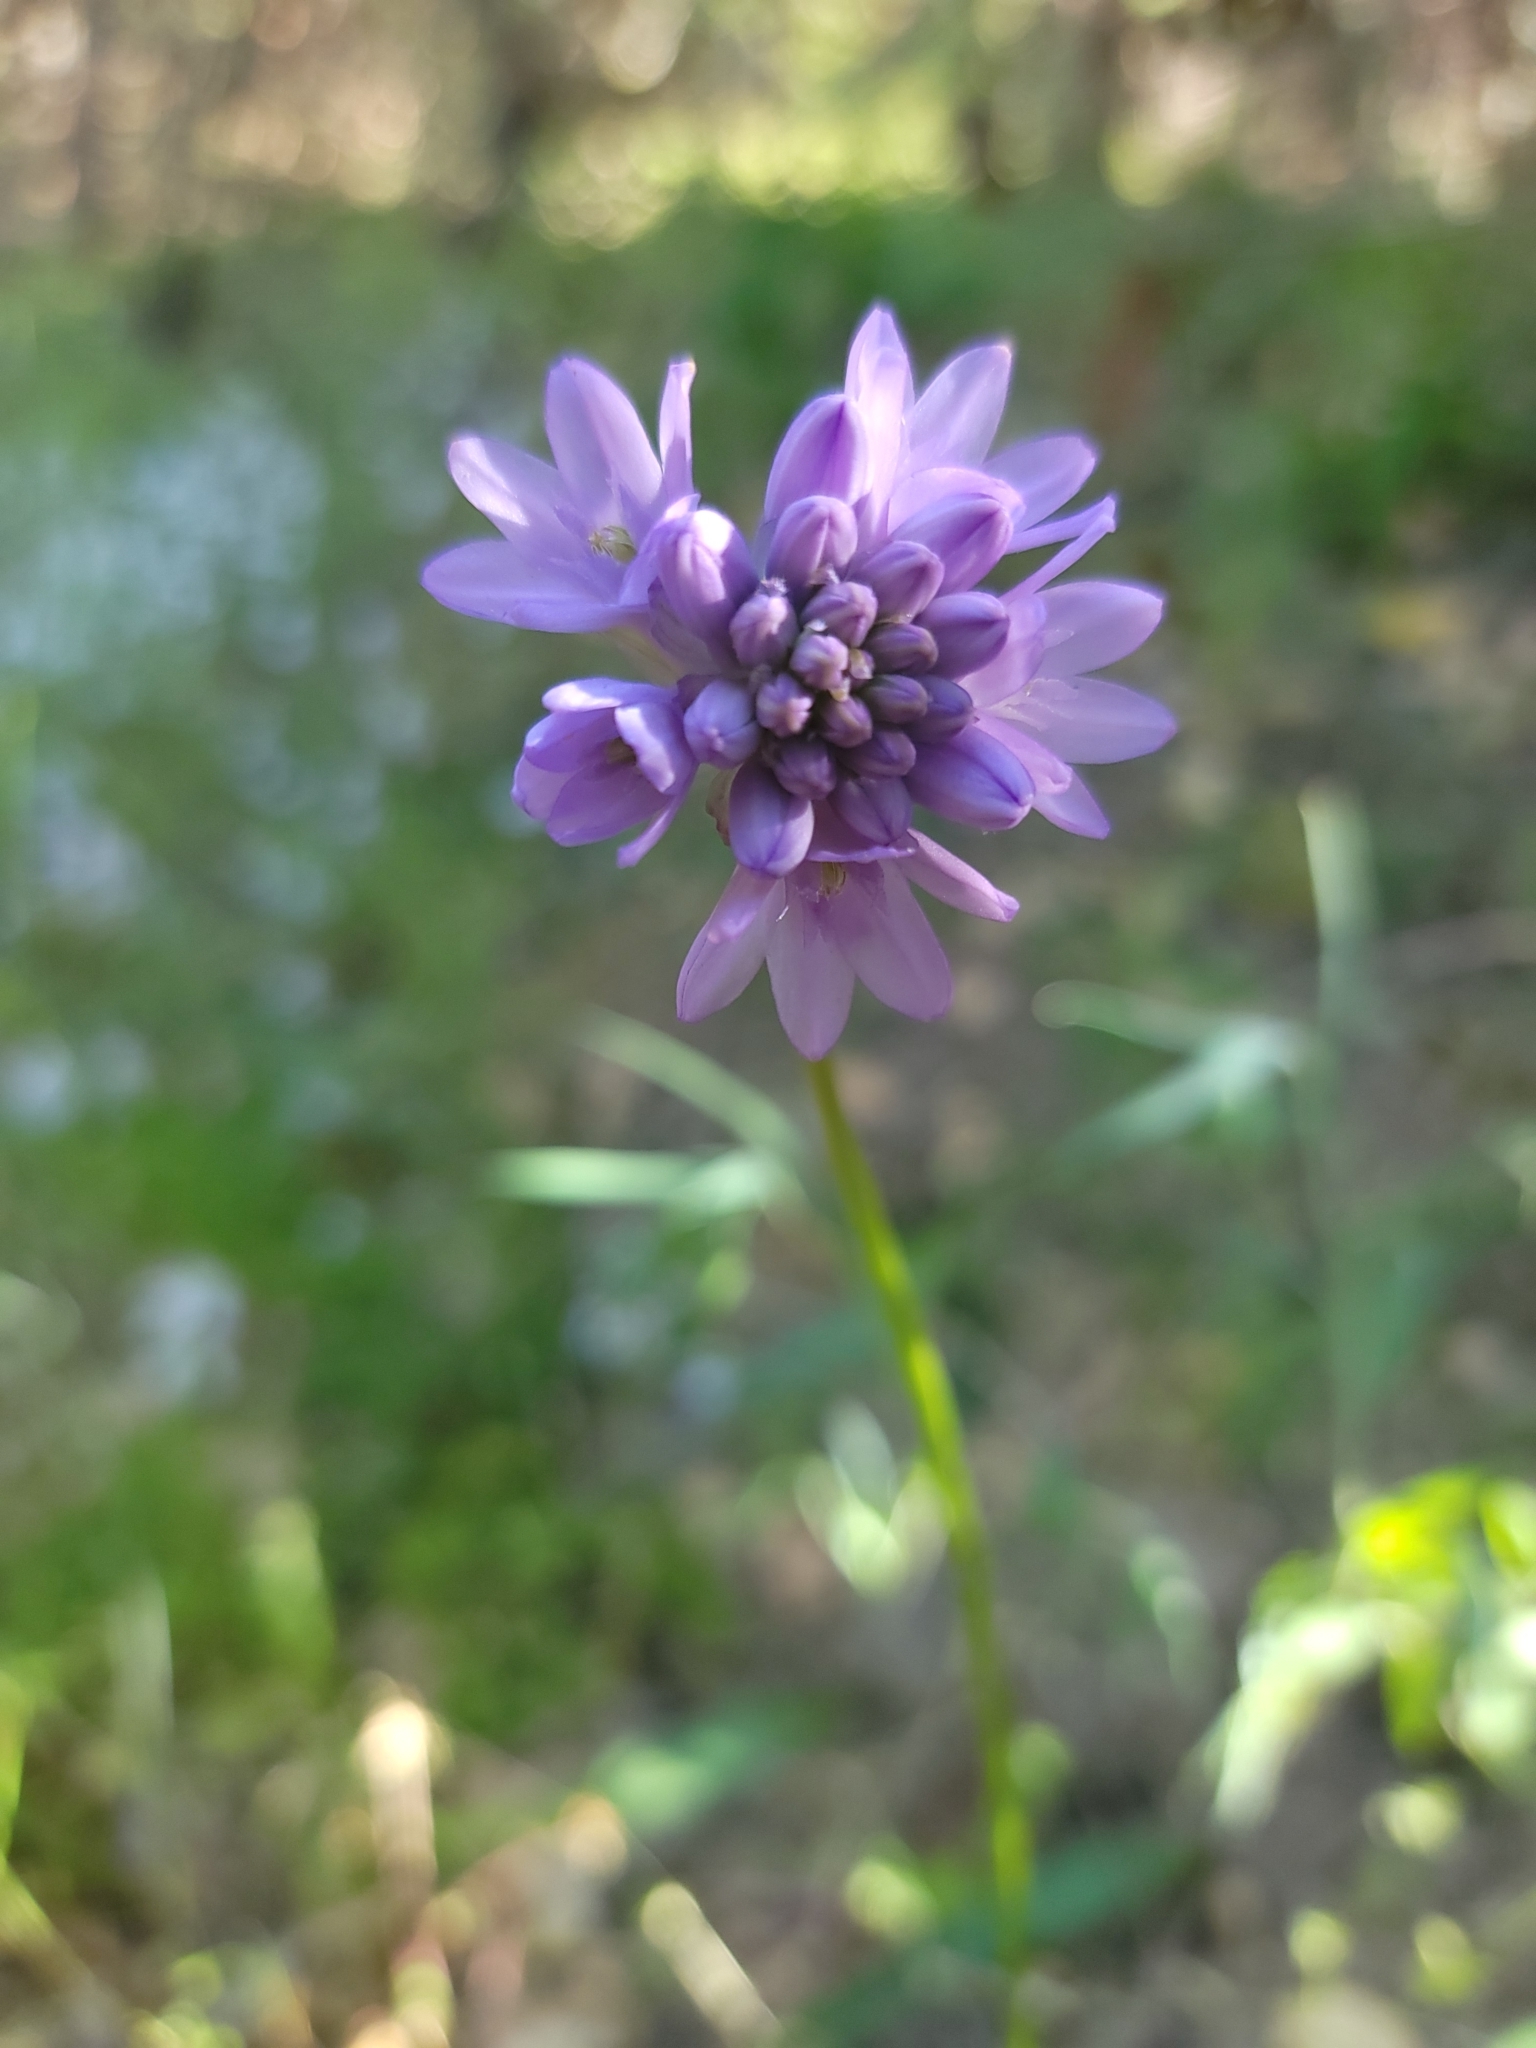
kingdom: Plantae
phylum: Tracheophyta
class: Liliopsida
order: Asparagales
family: Asparagaceae
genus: Dichelostemma
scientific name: Dichelostemma congestum
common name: Fork-tooth ookow
